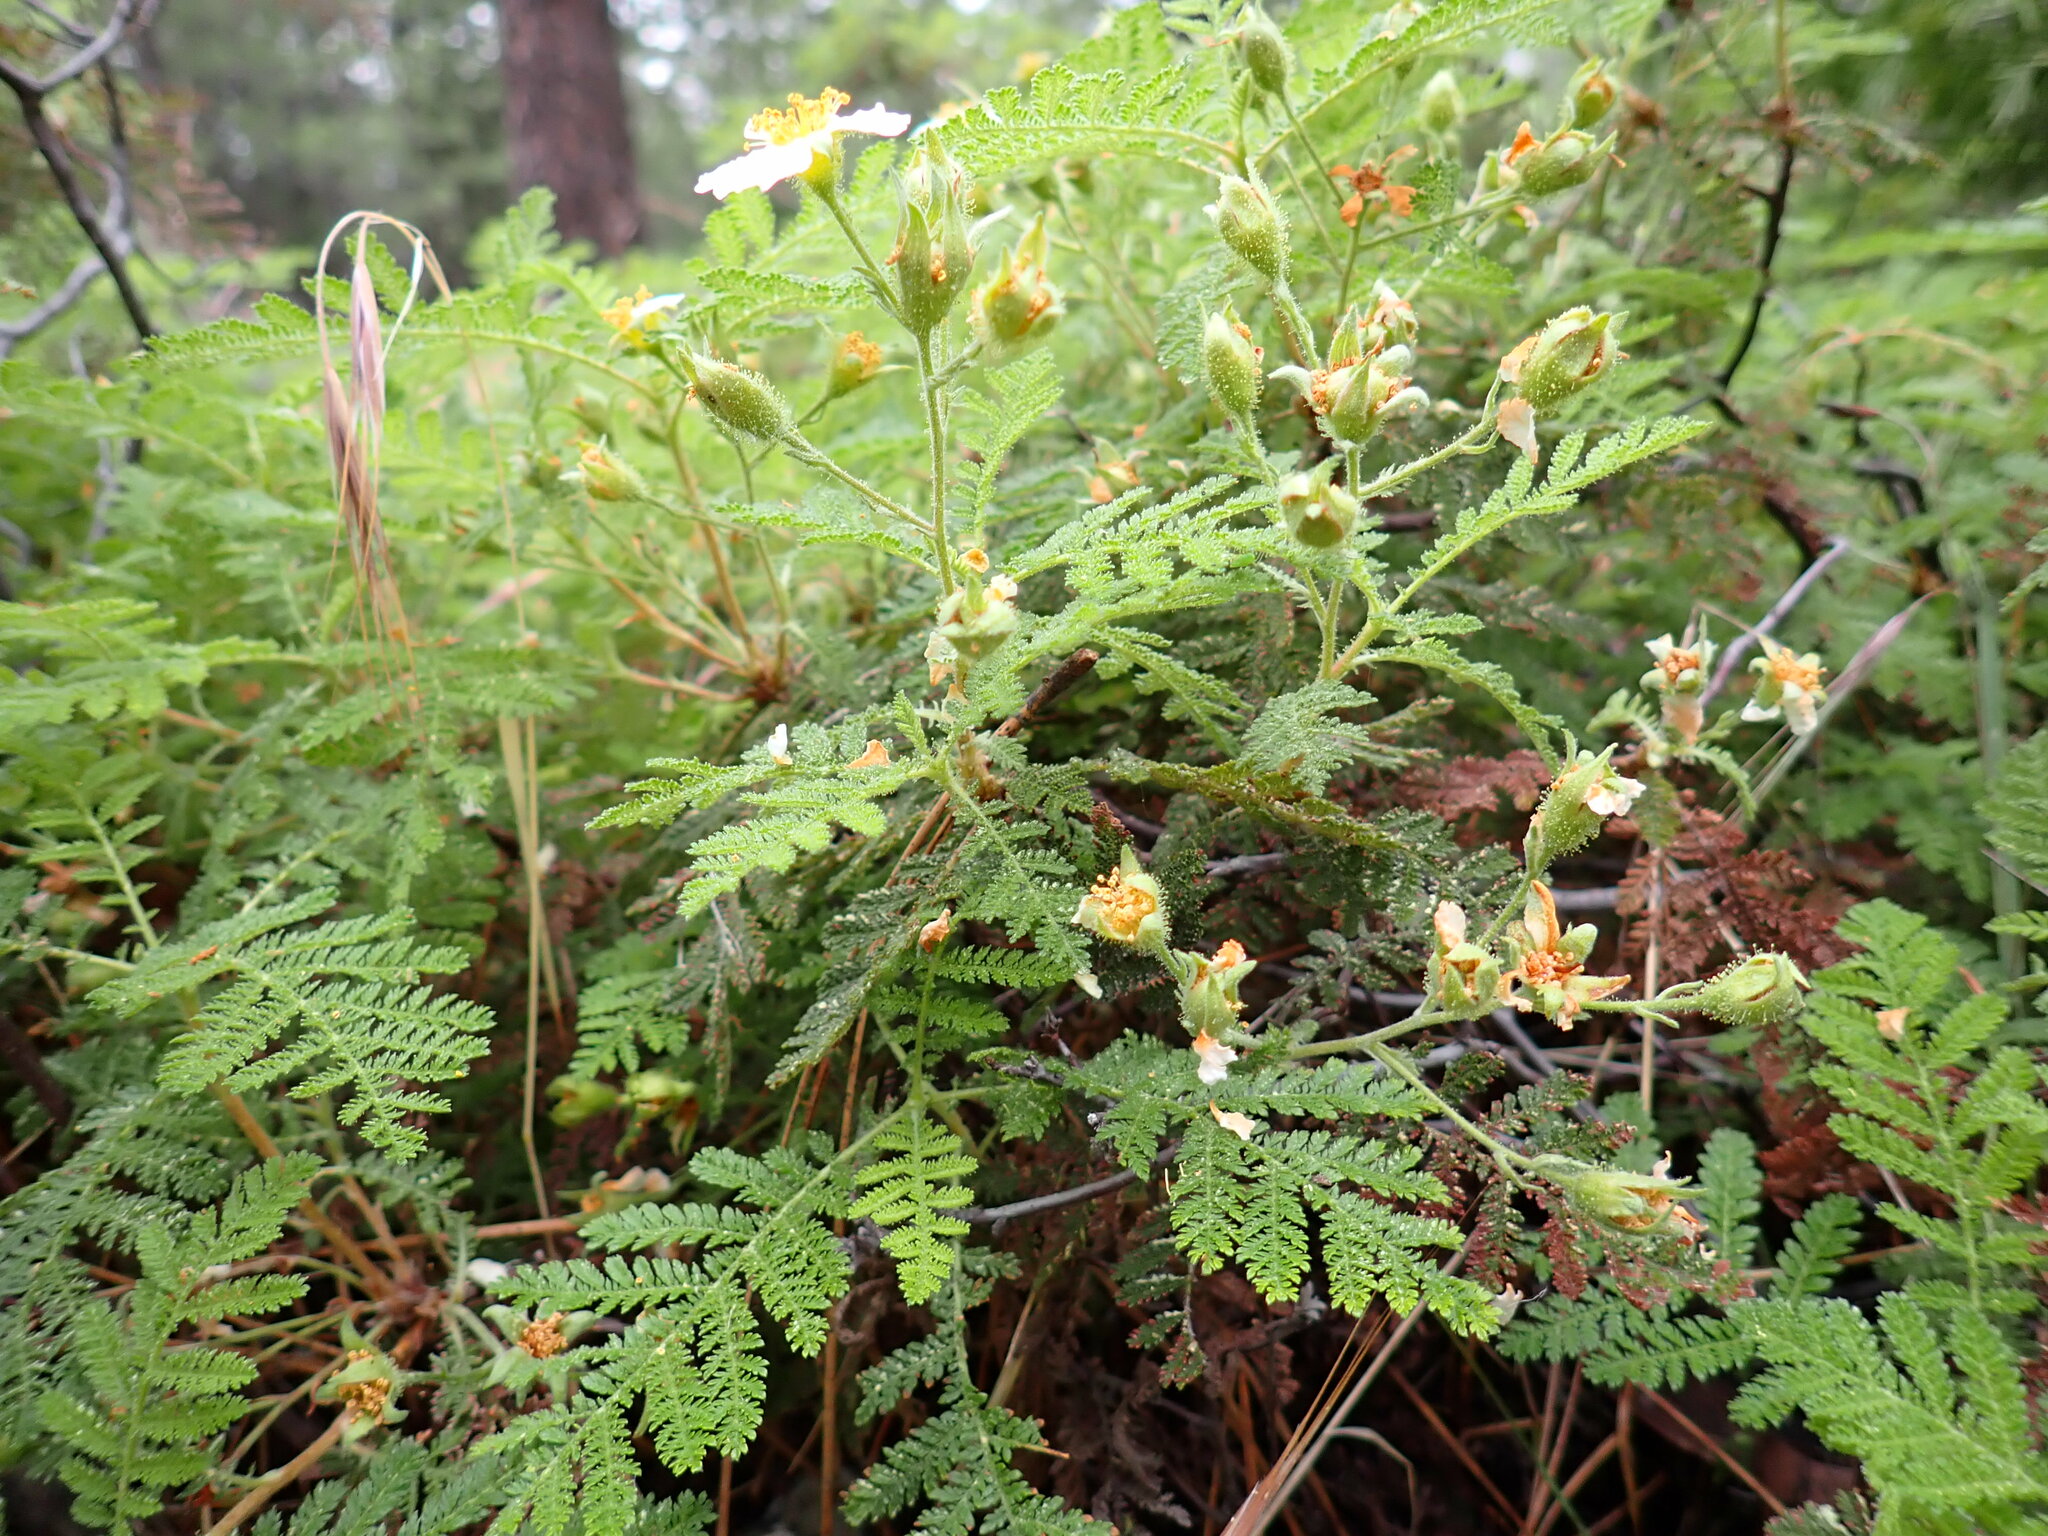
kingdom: Plantae
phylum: Tracheophyta
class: Magnoliopsida
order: Rosales
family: Rosaceae
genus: Chamaebatia
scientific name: Chamaebatia foliolosa
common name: Mountain misery
